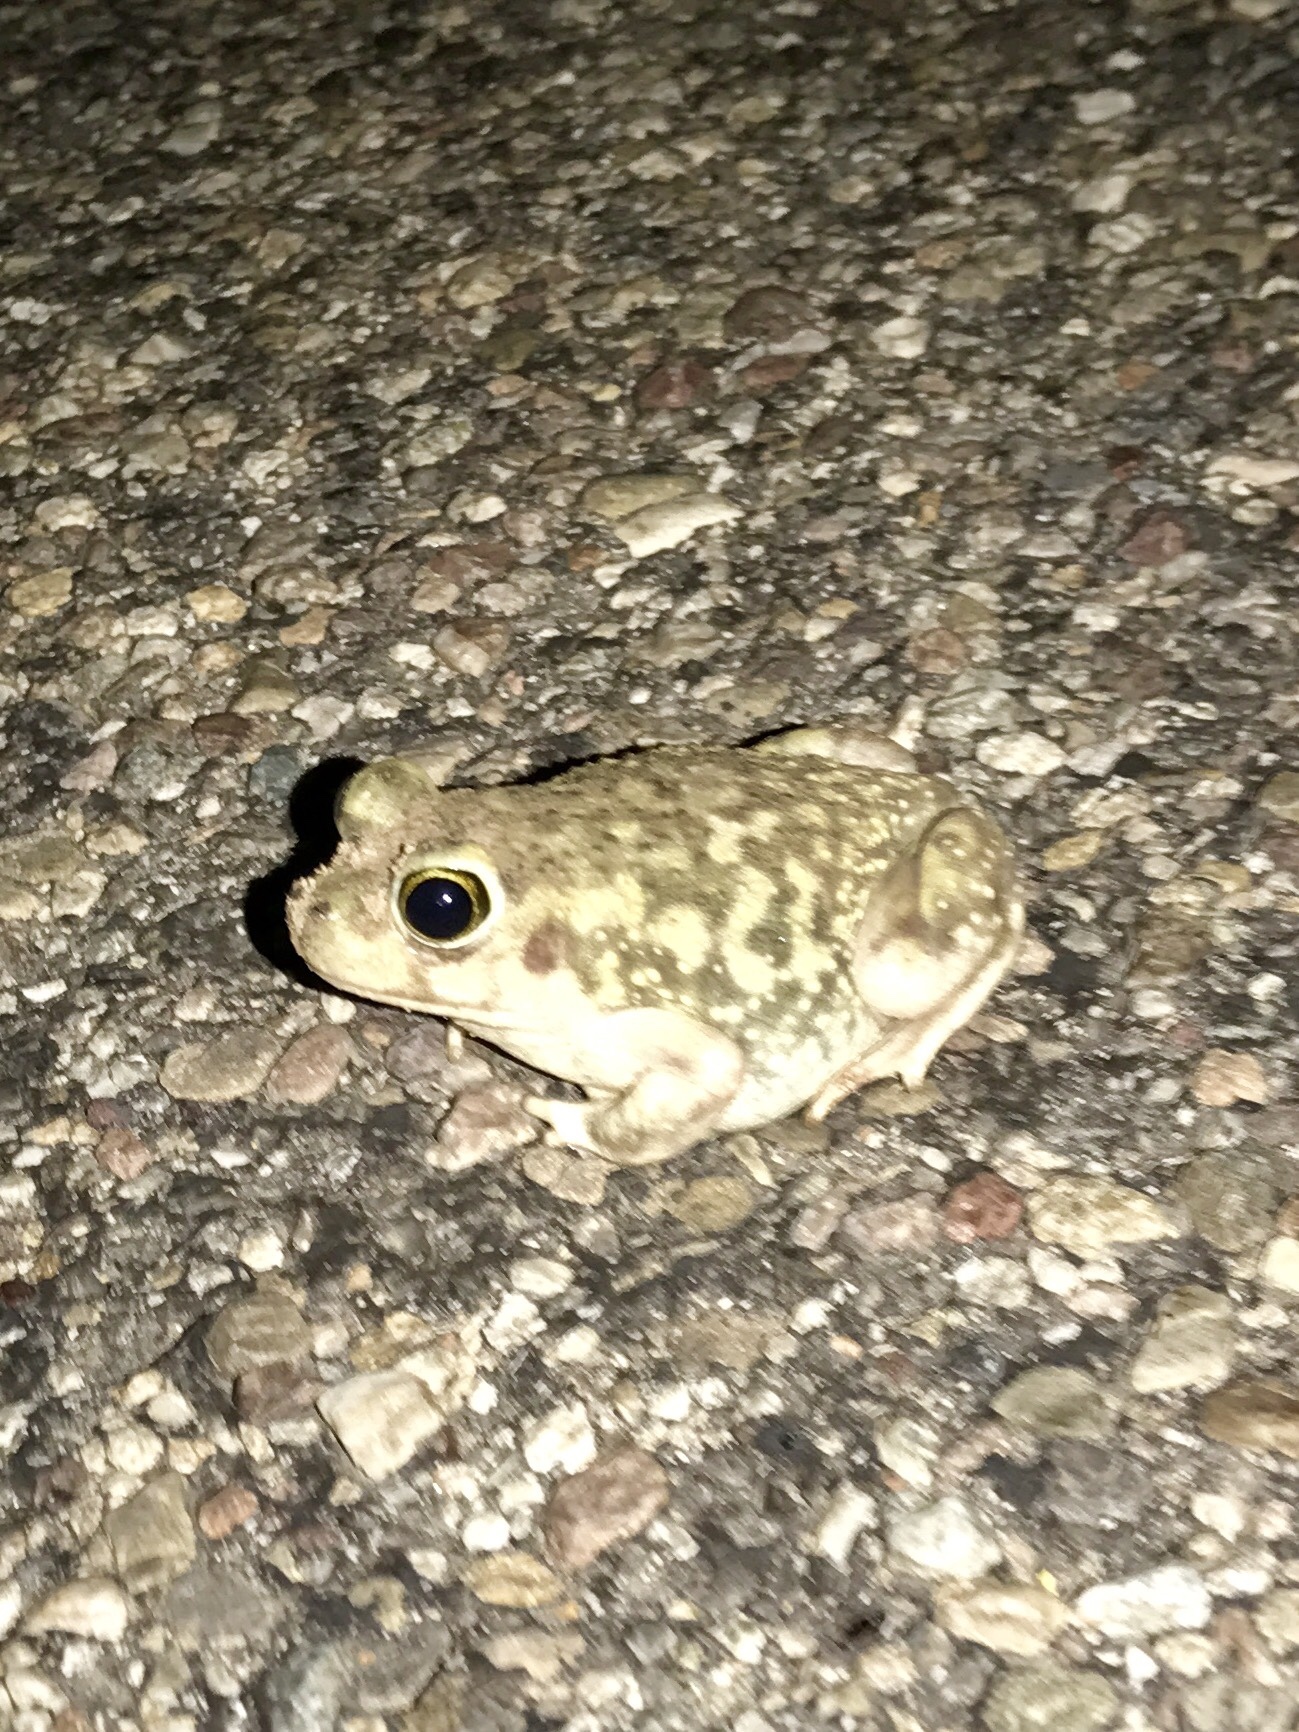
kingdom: Animalia
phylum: Chordata
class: Amphibia
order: Anura
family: Scaphiopodidae
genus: Scaphiopus
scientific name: Scaphiopus couchii
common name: Couch's spadefoot toad
